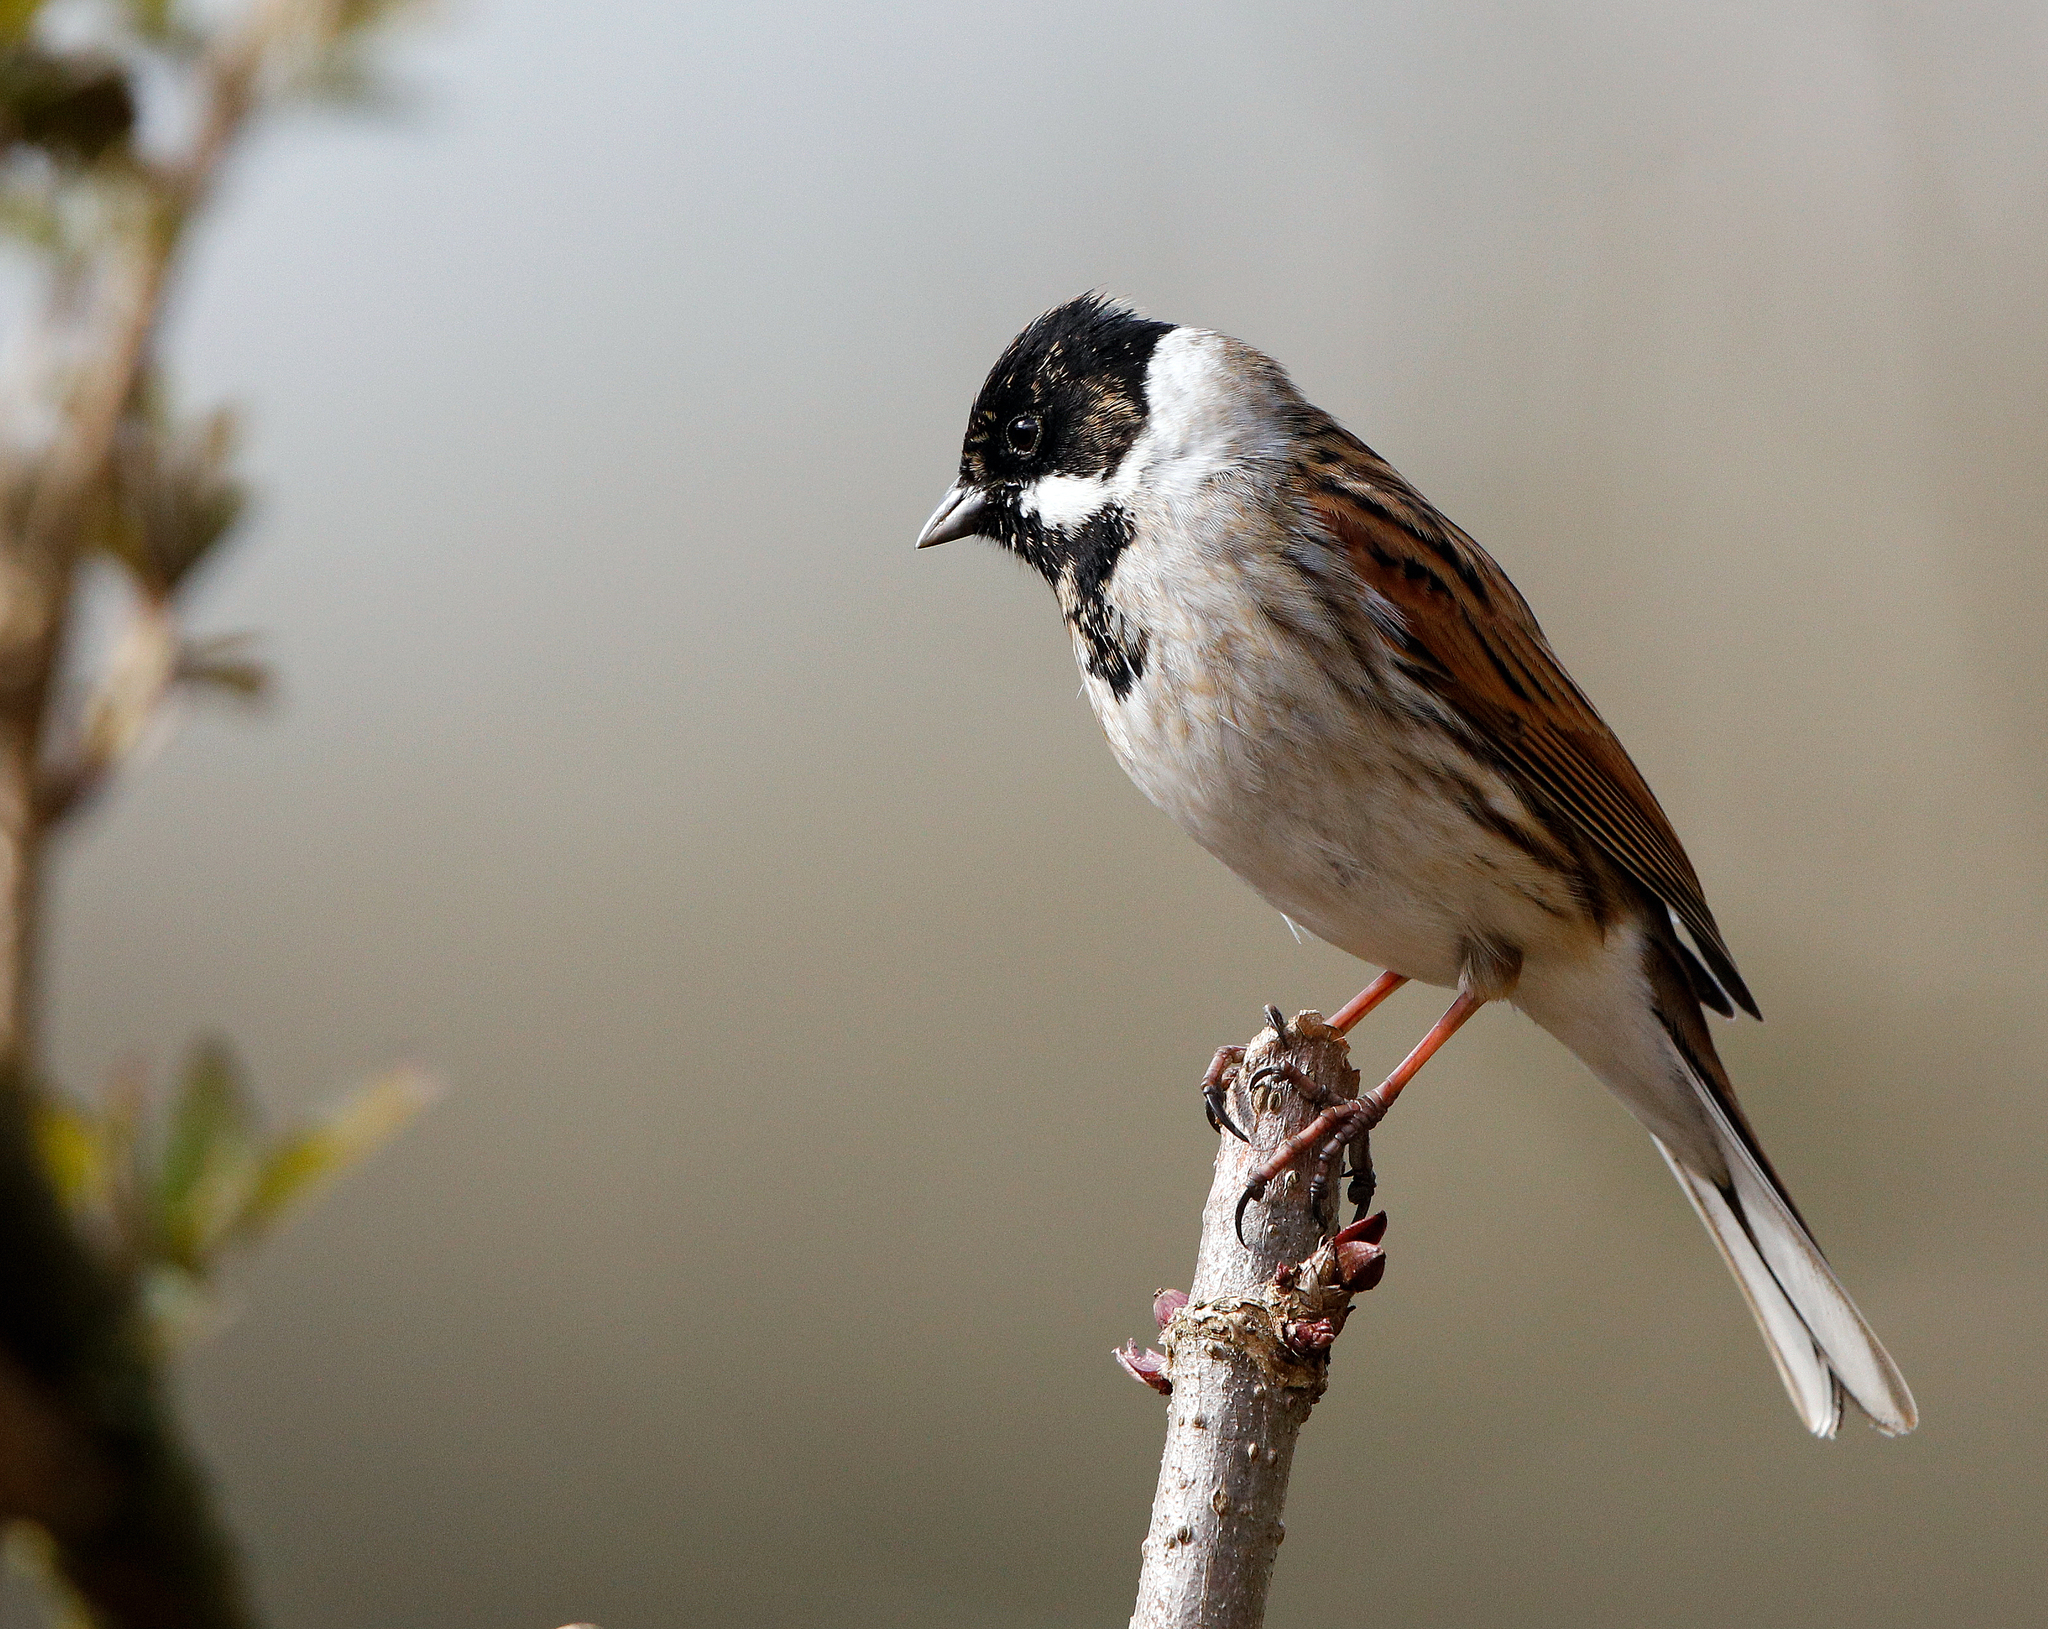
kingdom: Animalia
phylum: Chordata
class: Aves
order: Passeriformes
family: Emberizidae
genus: Emberiza
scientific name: Emberiza schoeniclus
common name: Reed bunting
